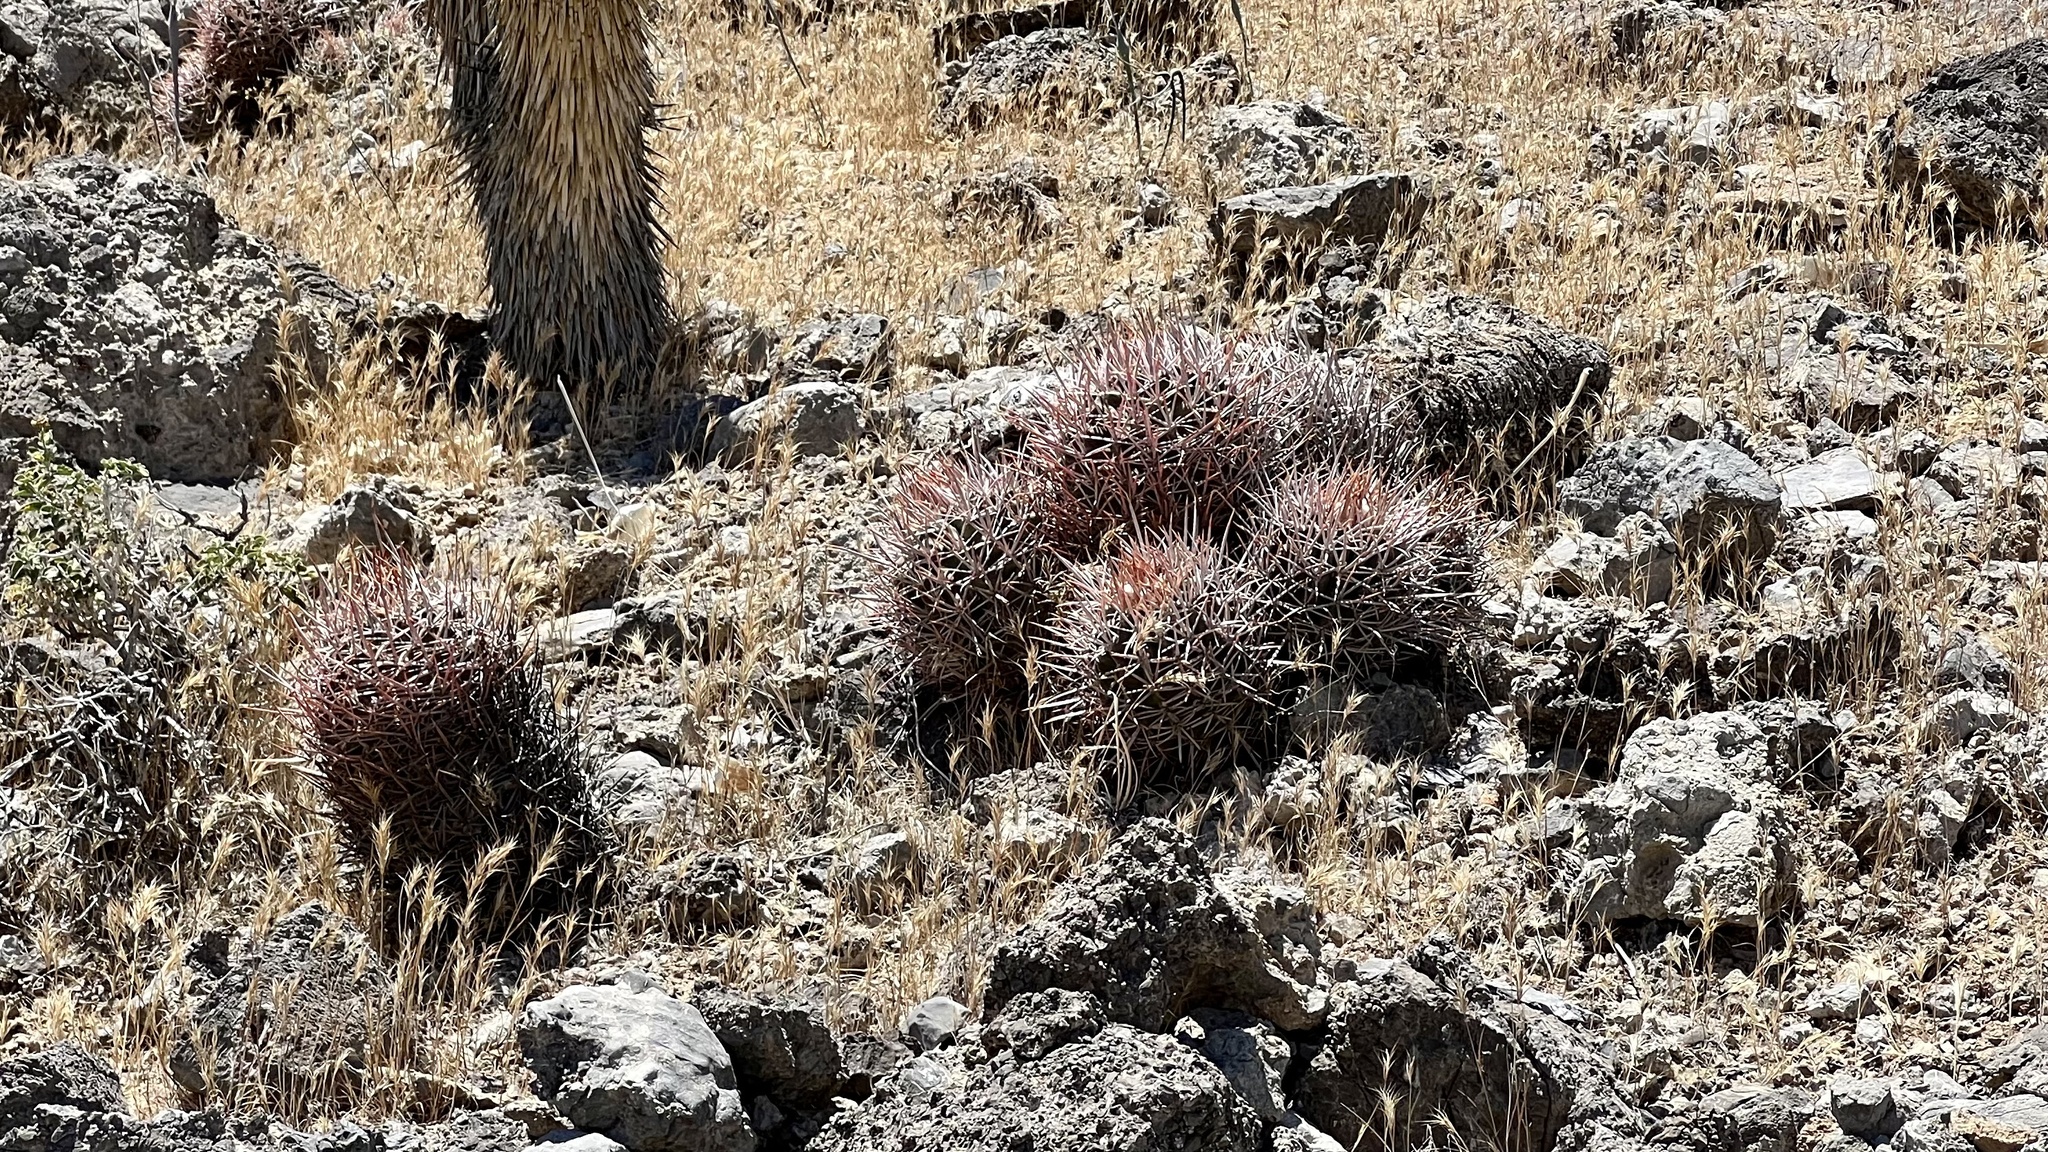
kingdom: Plantae
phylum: Tracheophyta
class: Magnoliopsida
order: Caryophyllales
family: Cactaceae
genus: Echinocactus
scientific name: Echinocactus polycephalus
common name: Cottontop cactus
